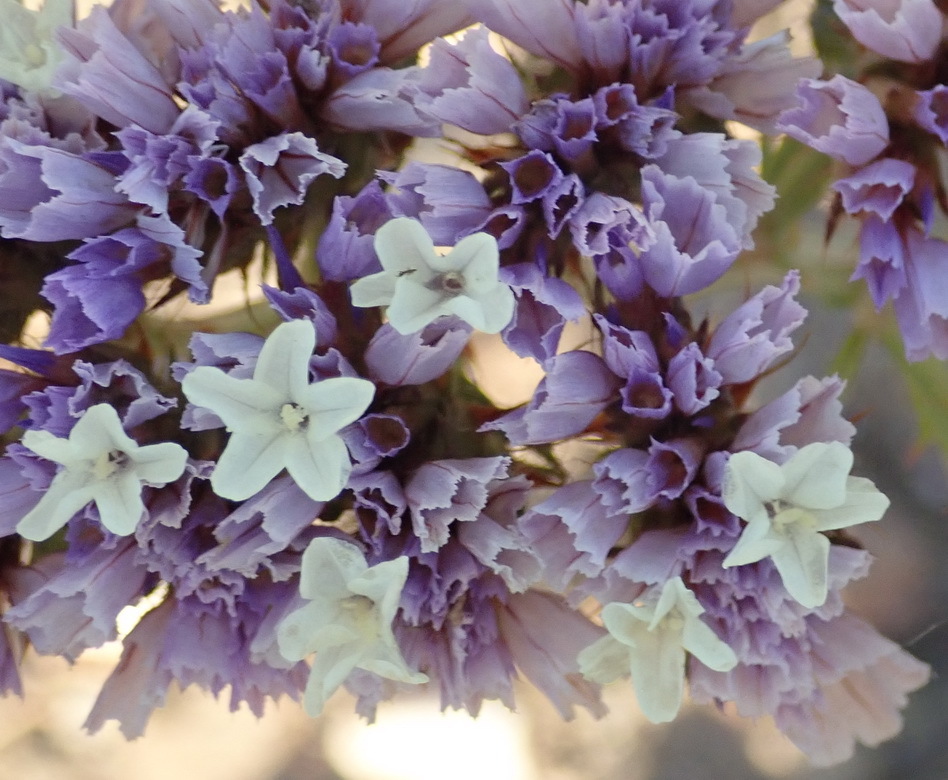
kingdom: Plantae
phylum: Tracheophyta
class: Magnoliopsida
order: Caryophyllales
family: Plumbaginaceae
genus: Limonium
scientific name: Limonium sinuatum
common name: Statice
